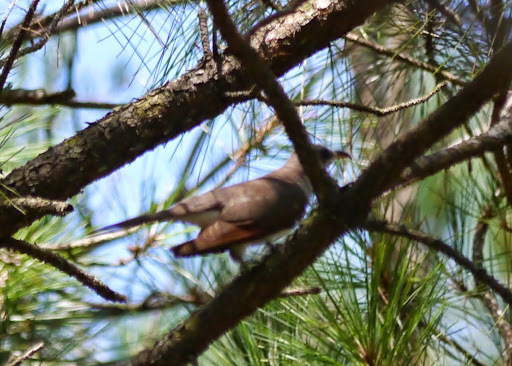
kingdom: Animalia
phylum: Chordata
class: Aves
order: Cuculiformes
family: Cuculidae
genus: Coccyzus
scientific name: Coccyzus americanus
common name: Yellow-billed cuckoo
